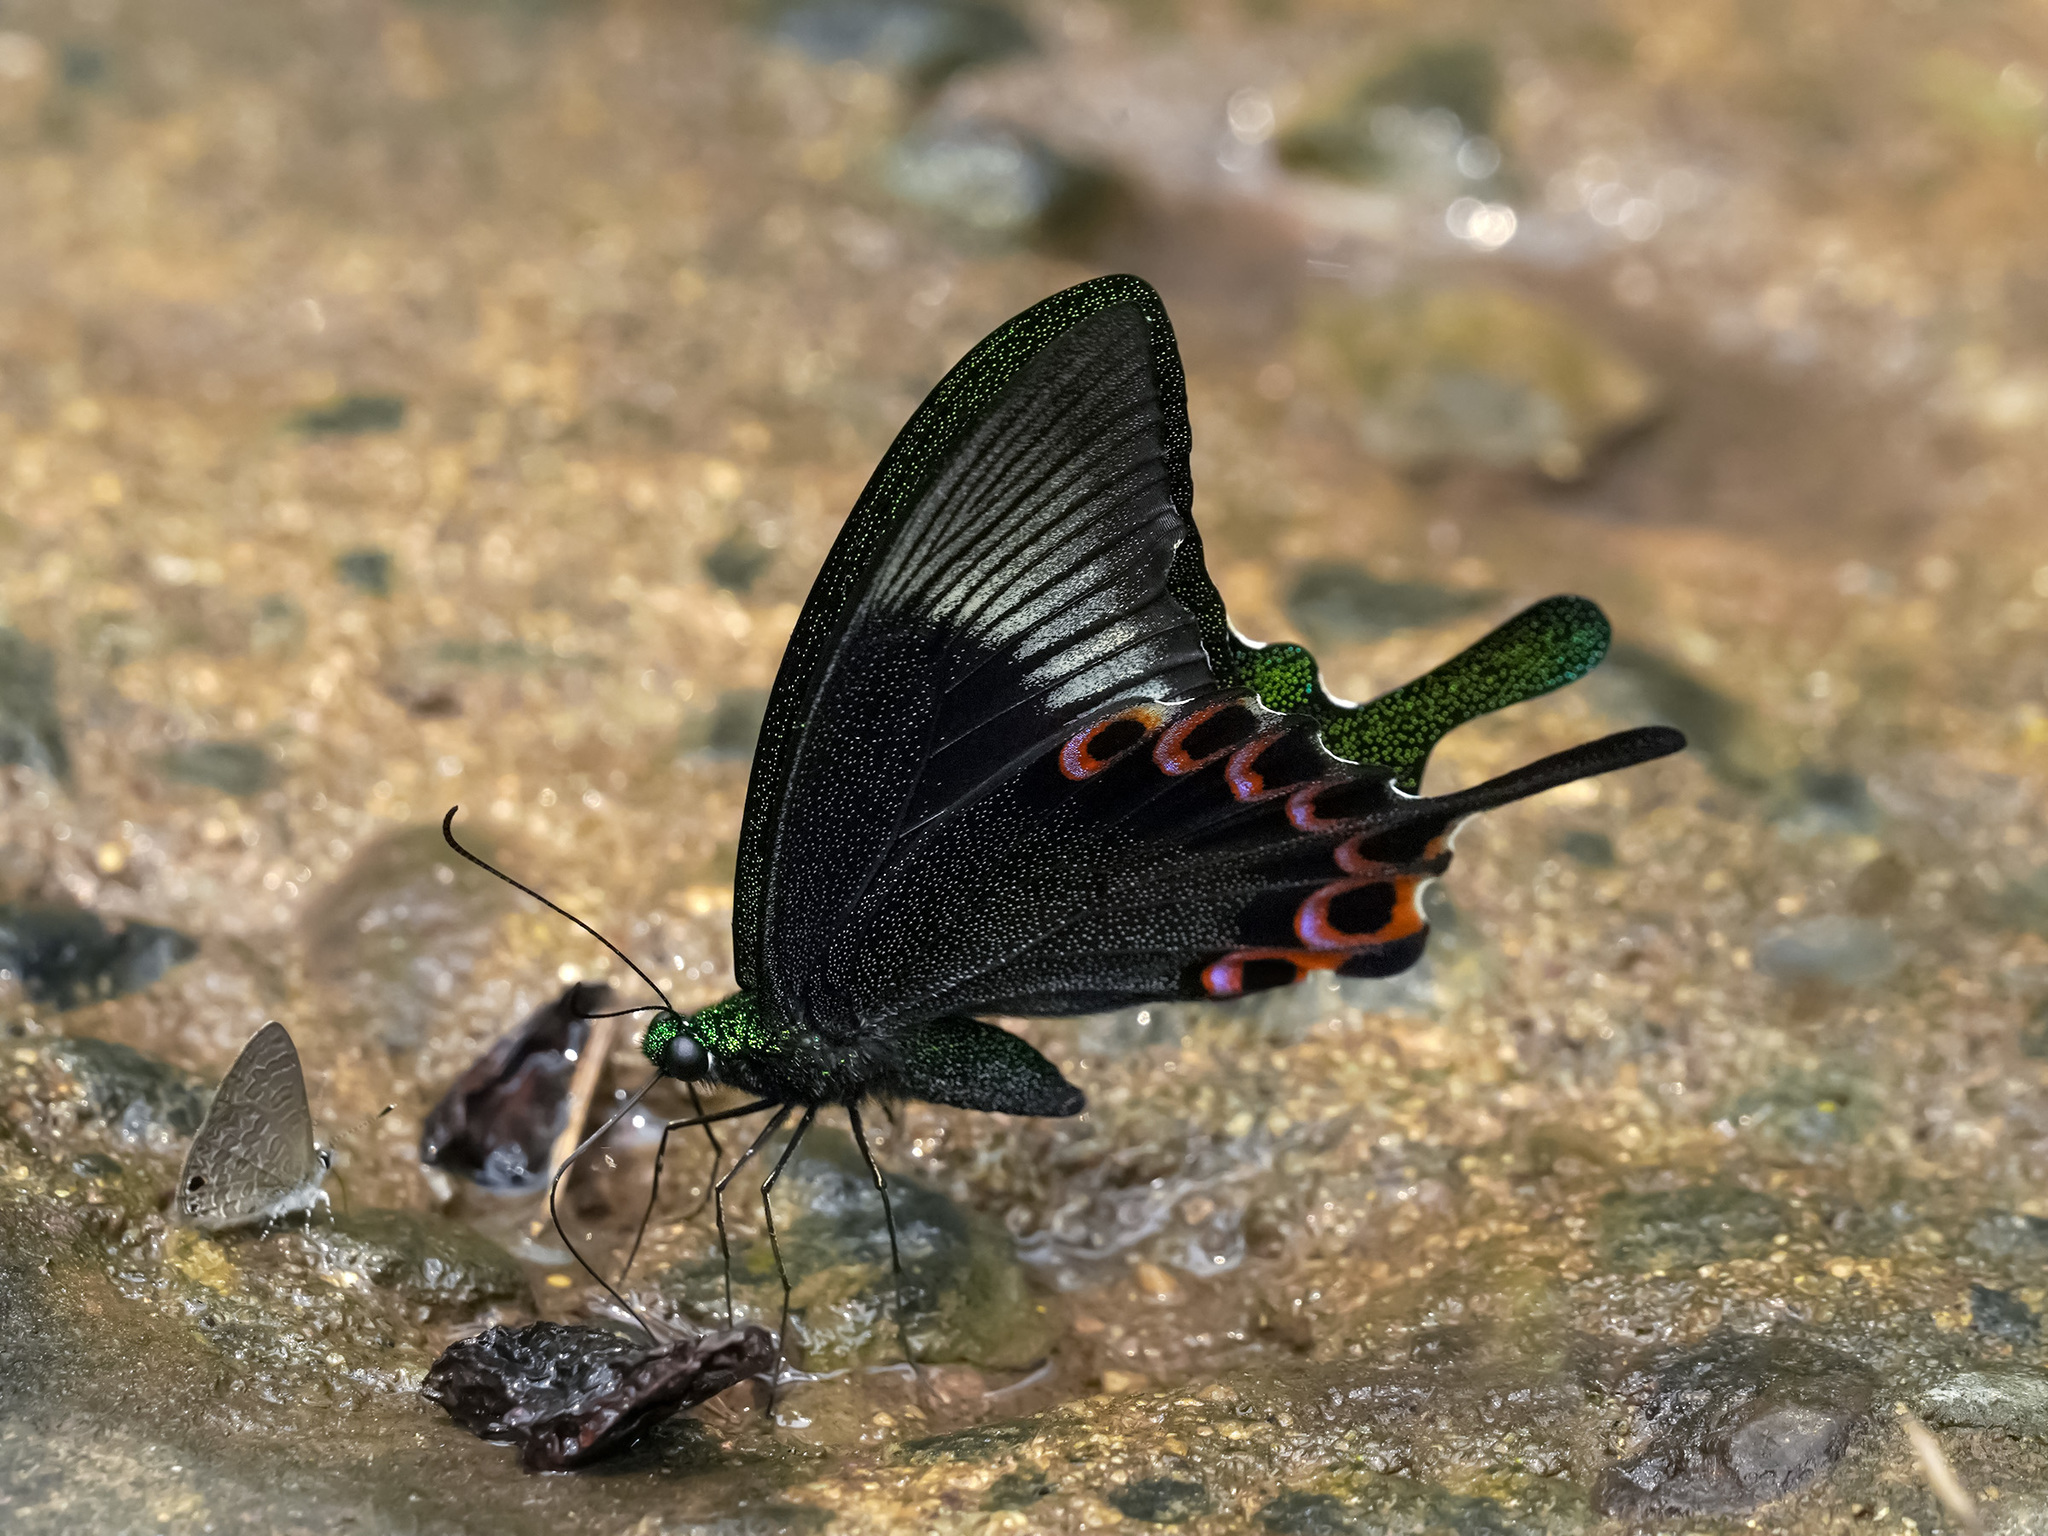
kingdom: Animalia
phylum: Arthropoda
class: Insecta
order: Lepidoptera
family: Papilionidae
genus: Papilio
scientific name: Papilio paris
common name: Paris peacock
